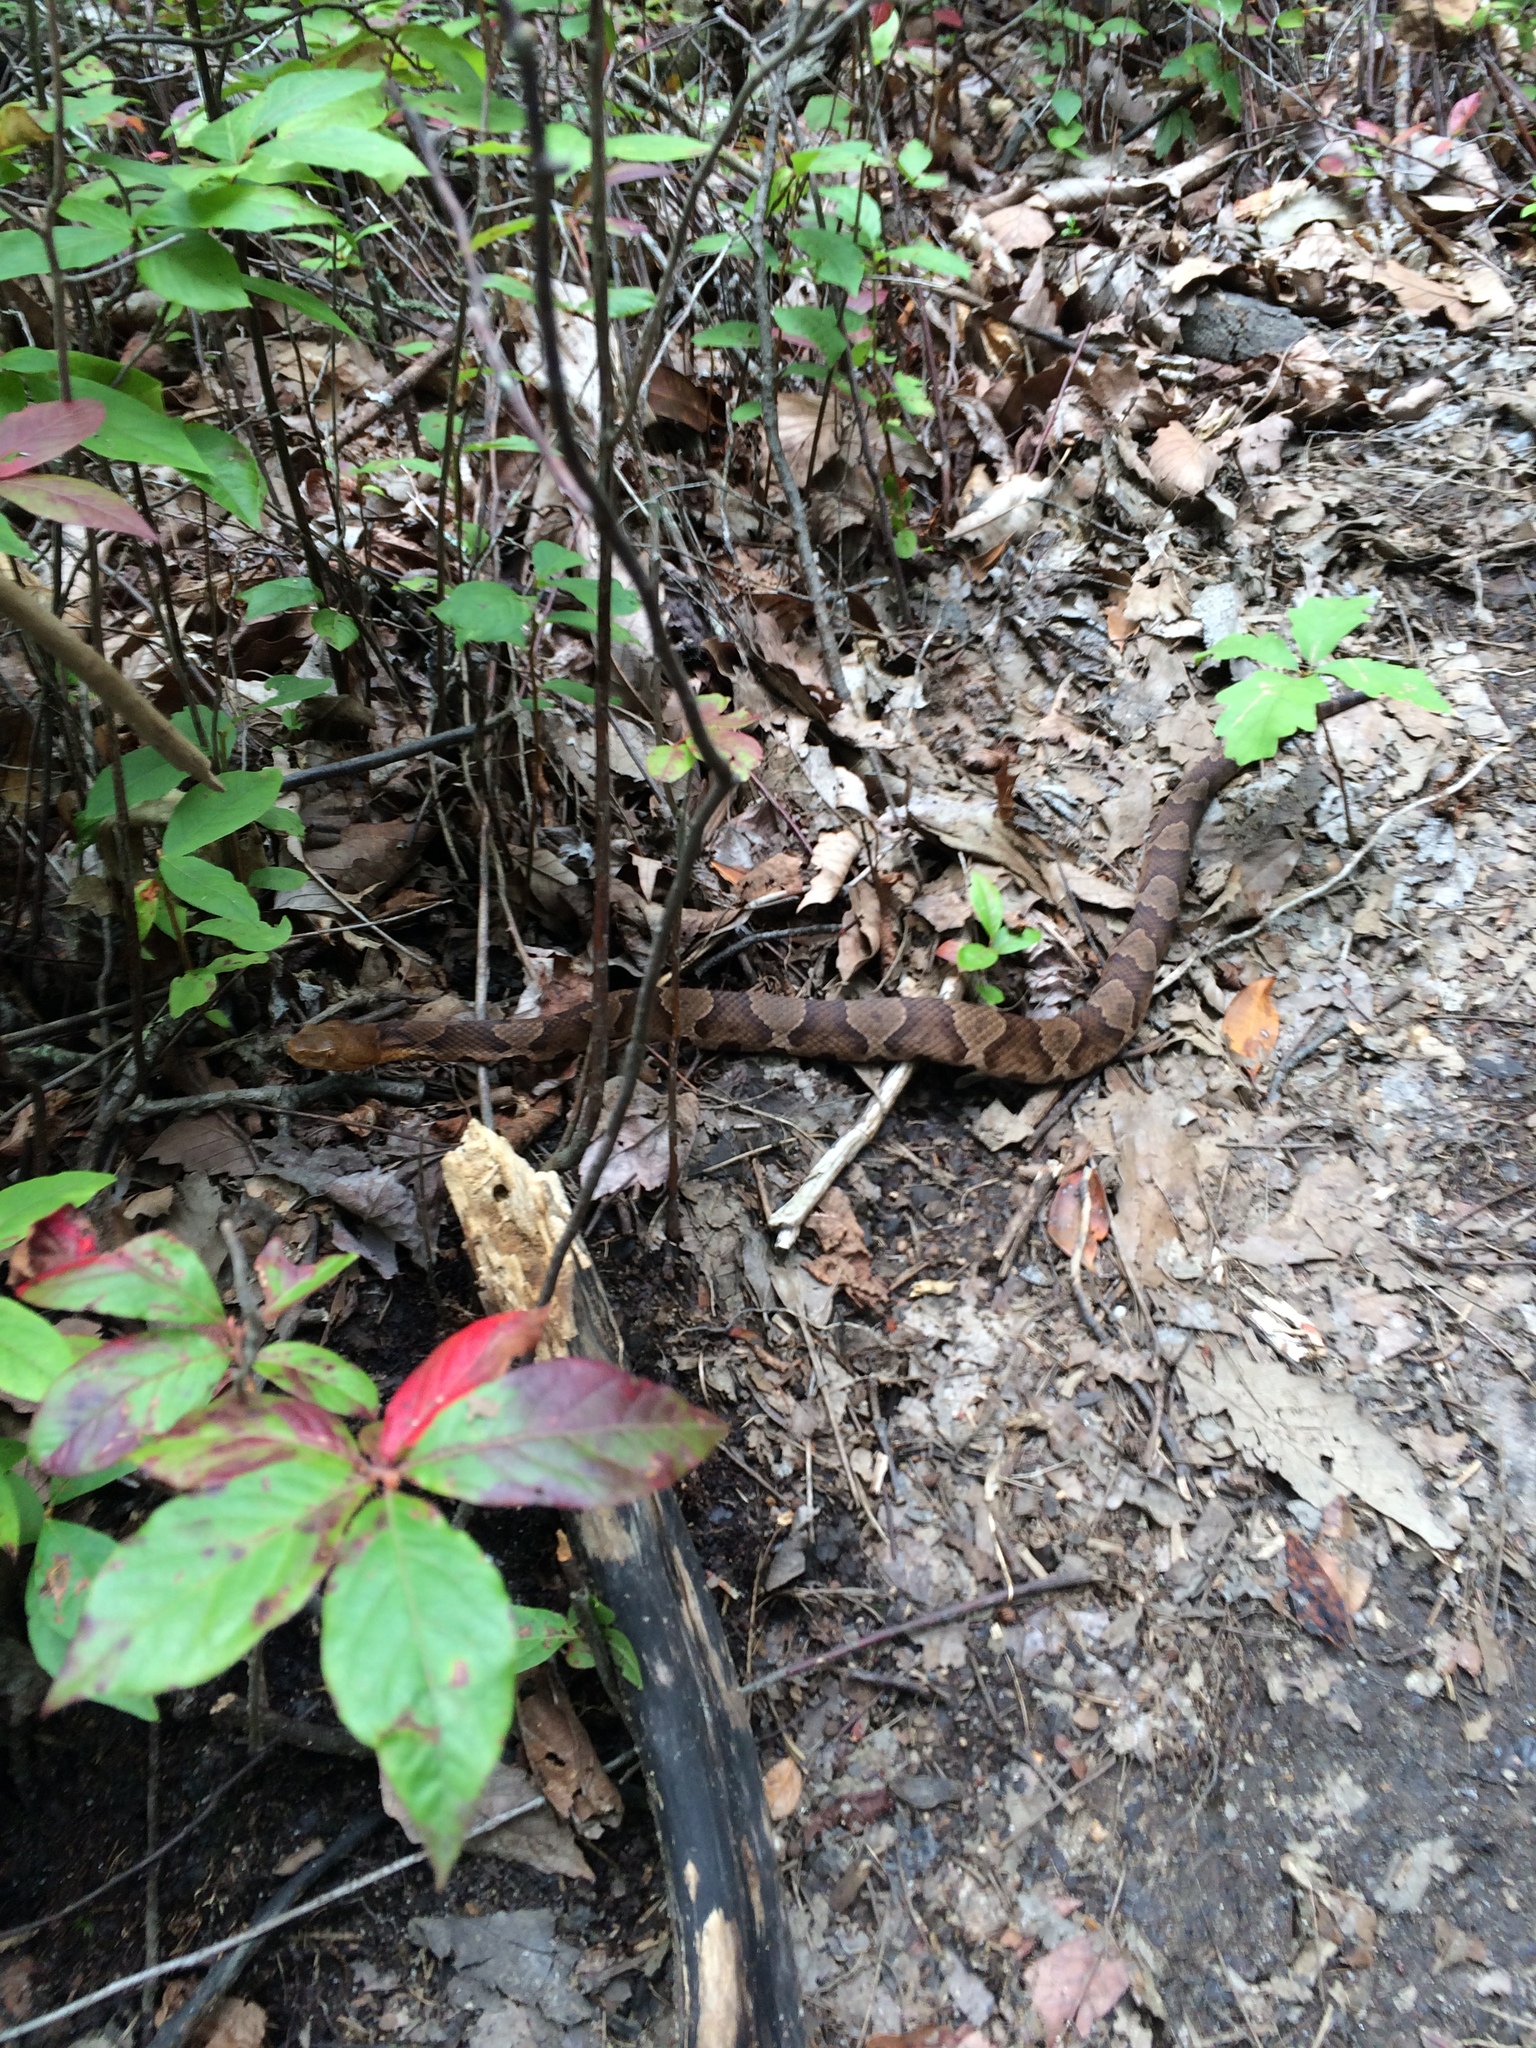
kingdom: Animalia
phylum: Chordata
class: Squamata
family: Viperidae
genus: Agkistrodon
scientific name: Agkistrodon contortrix
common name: Northern copperhead
